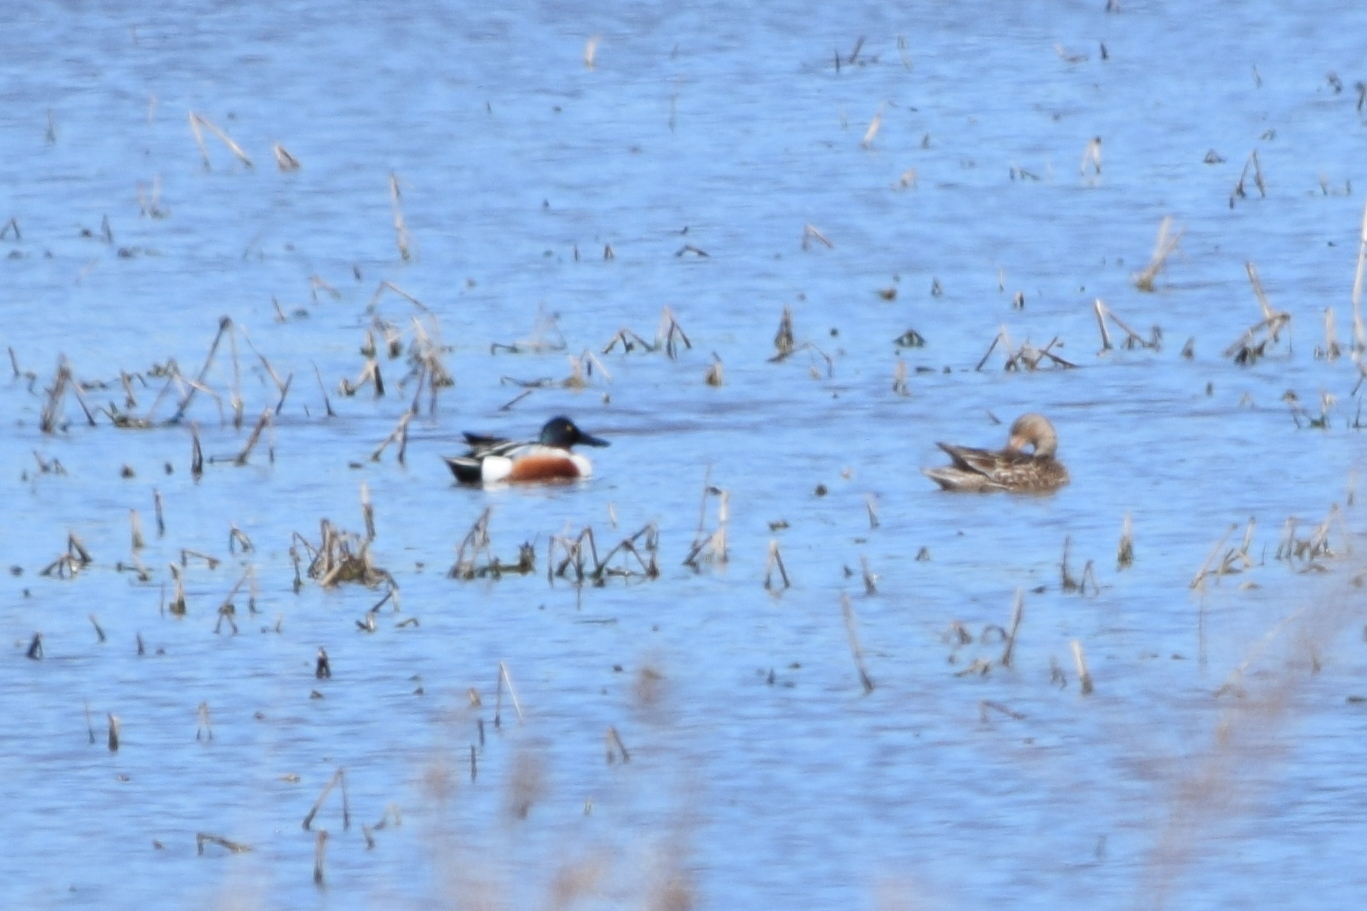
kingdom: Animalia
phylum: Chordata
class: Aves
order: Anseriformes
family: Anatidae
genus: Spatula
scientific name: Spatula clypeata
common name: Northern shoveler
